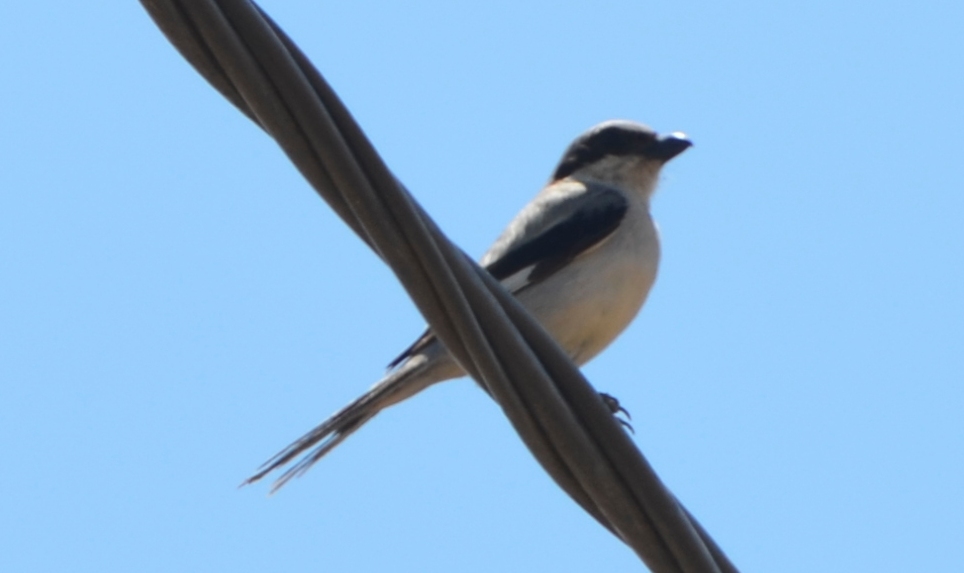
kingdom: Animalia
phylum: Chordata
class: Aves
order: Passeriformes
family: Laniidae
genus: Lanius
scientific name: Lanius excubitor
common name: Great grey shrike
